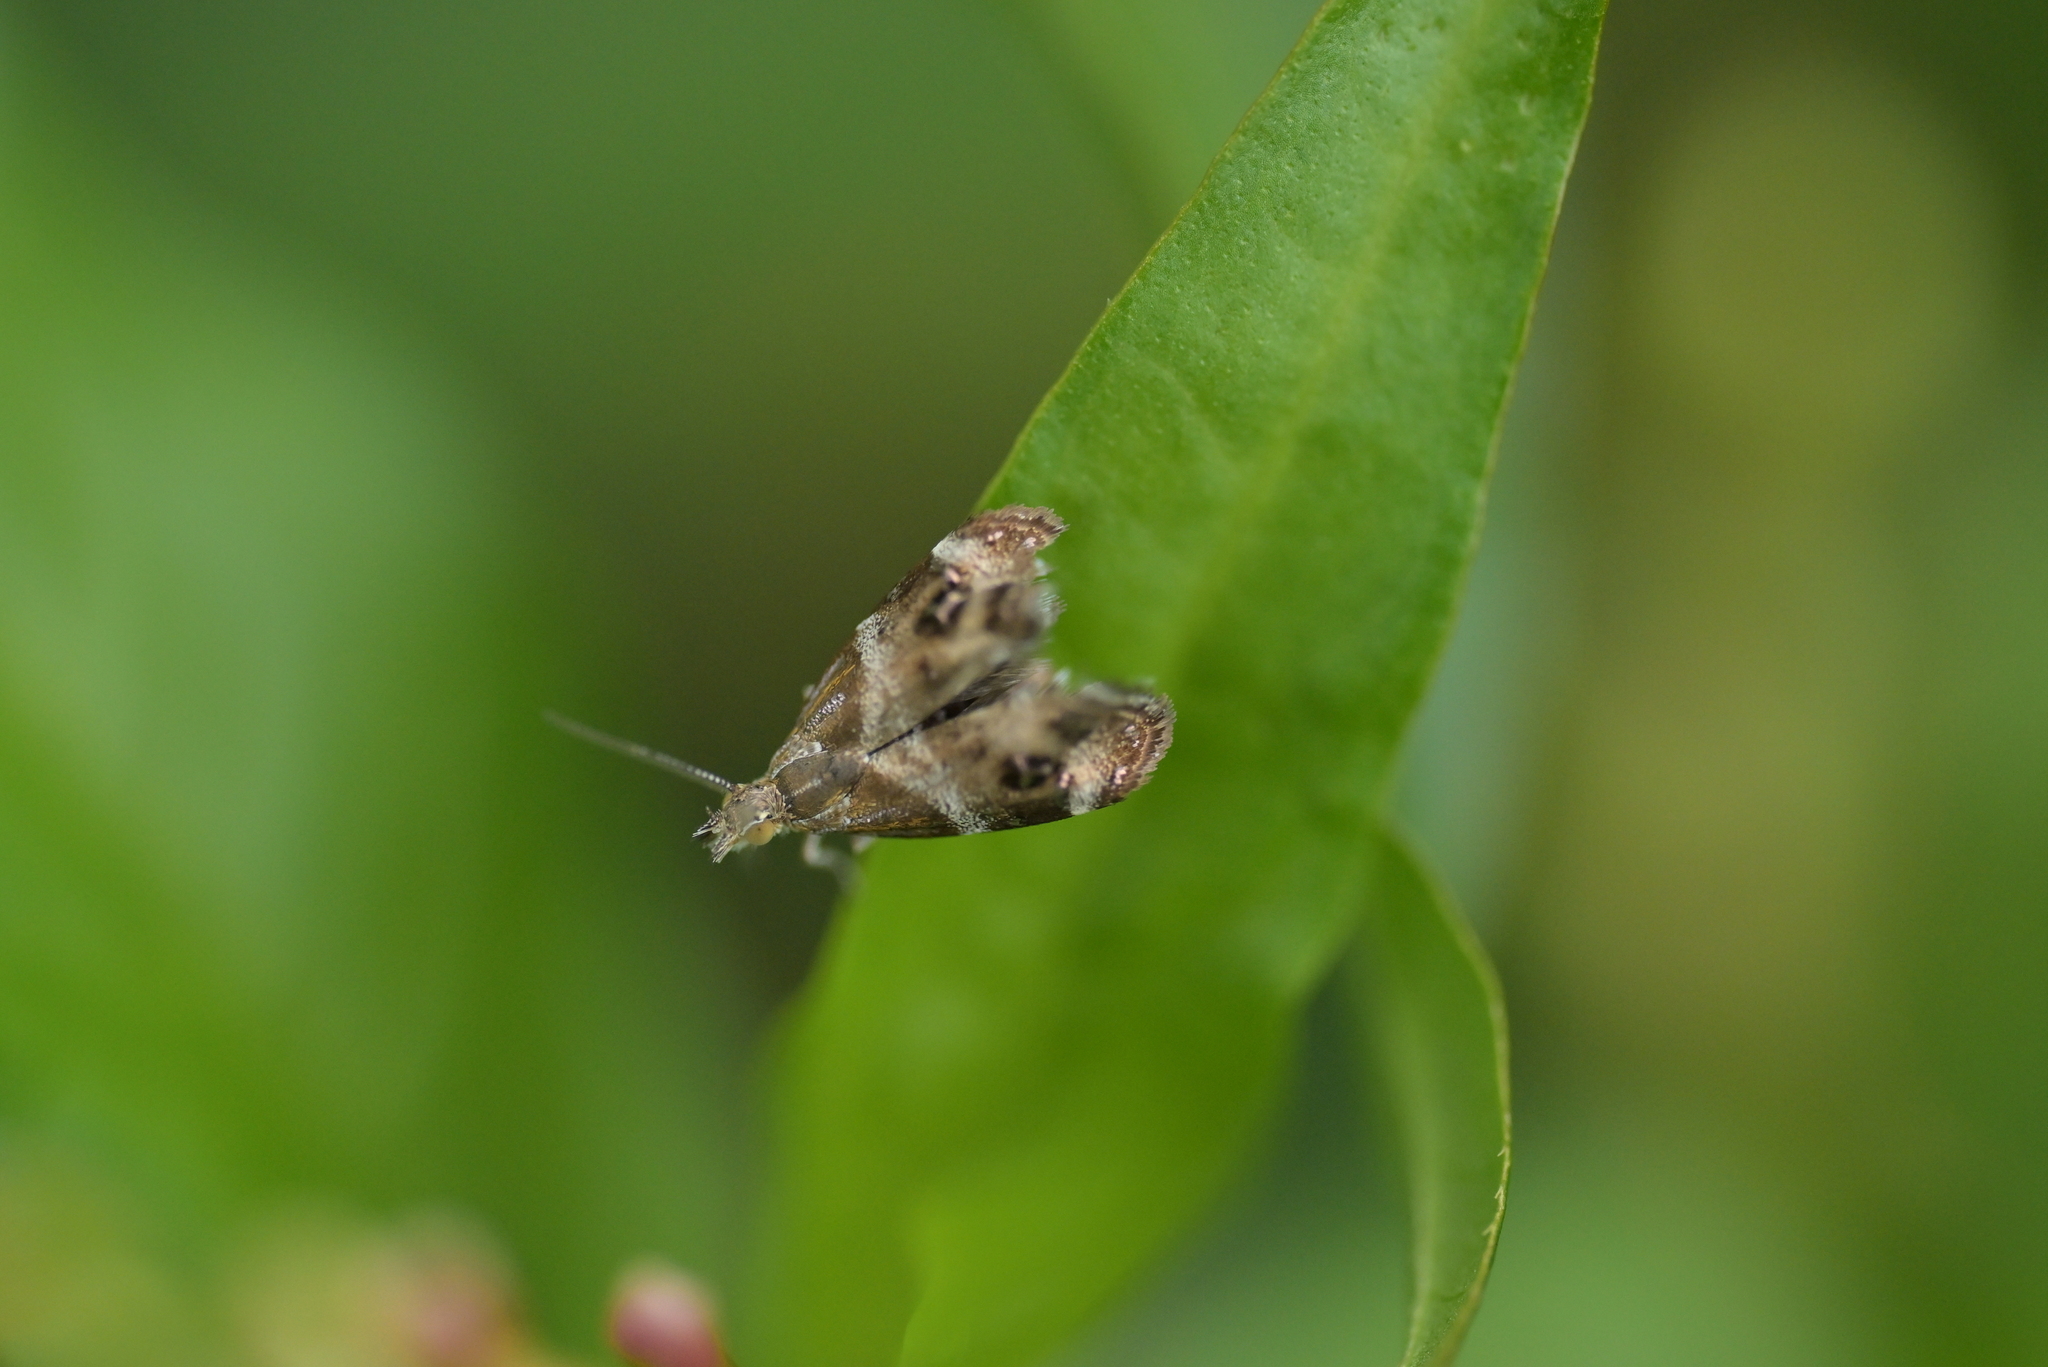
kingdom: Animalia
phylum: Arthropoda
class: Insecta
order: Lepidoptera
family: Choreutidae
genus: Tebenna
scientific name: Tebenna micalis
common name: Vagrant twitcher
